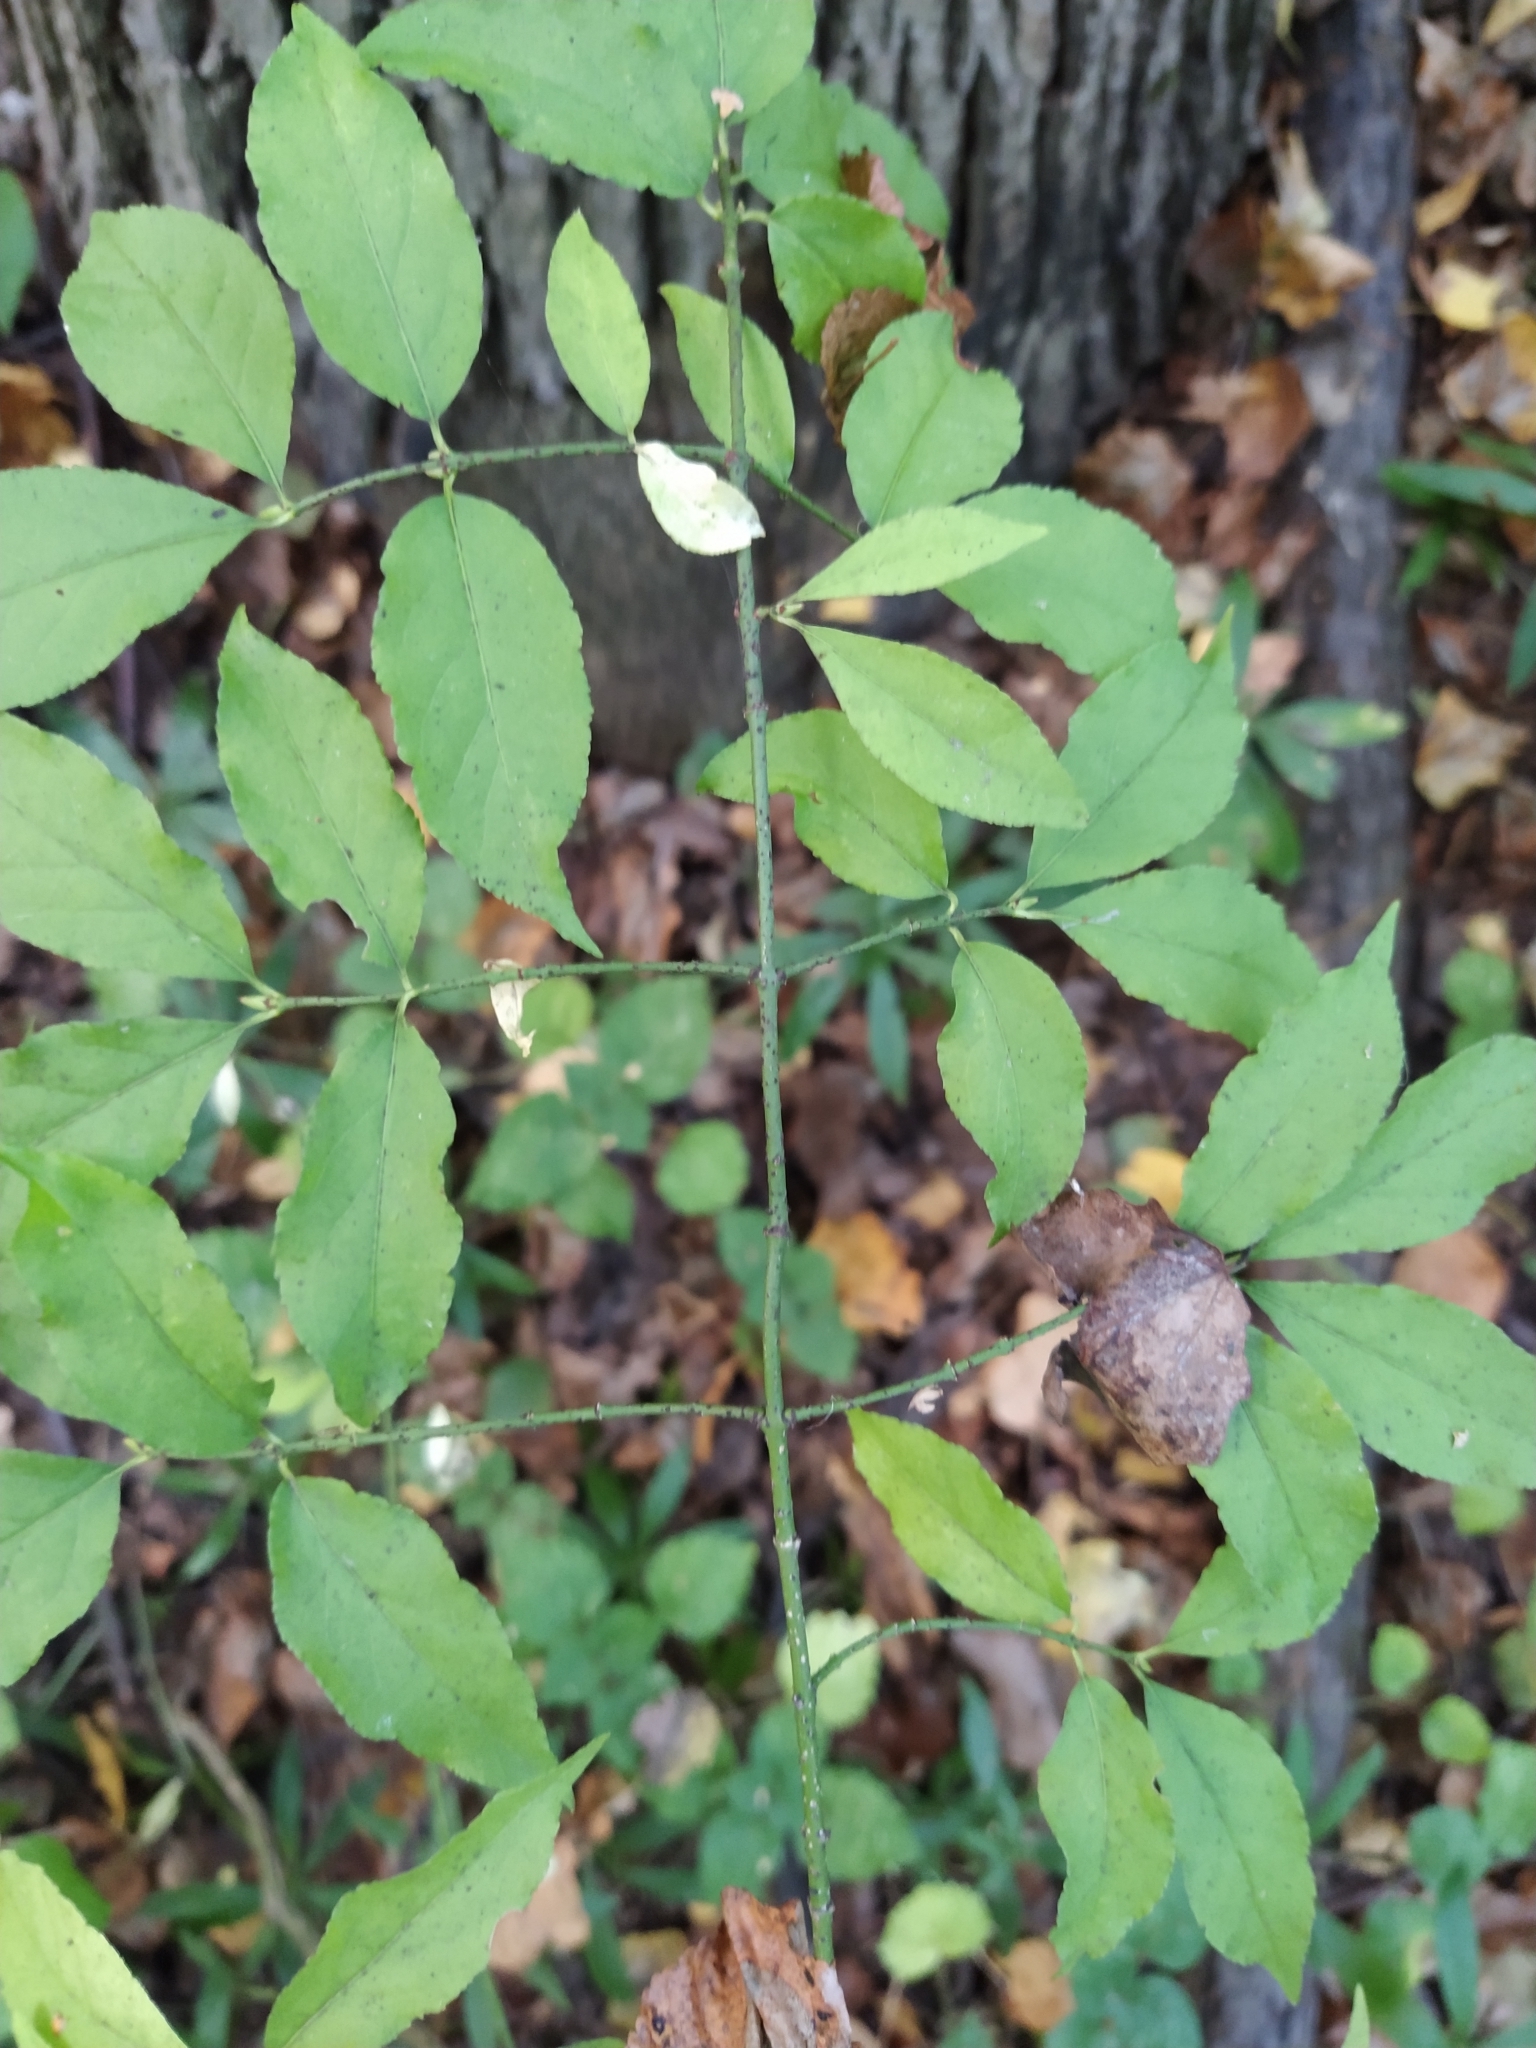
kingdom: Plantae
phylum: Tracheophyta
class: Magnoliopsida
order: Celastrales
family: Celastraceae
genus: Euonymus
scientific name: Euonymus verrucosus
